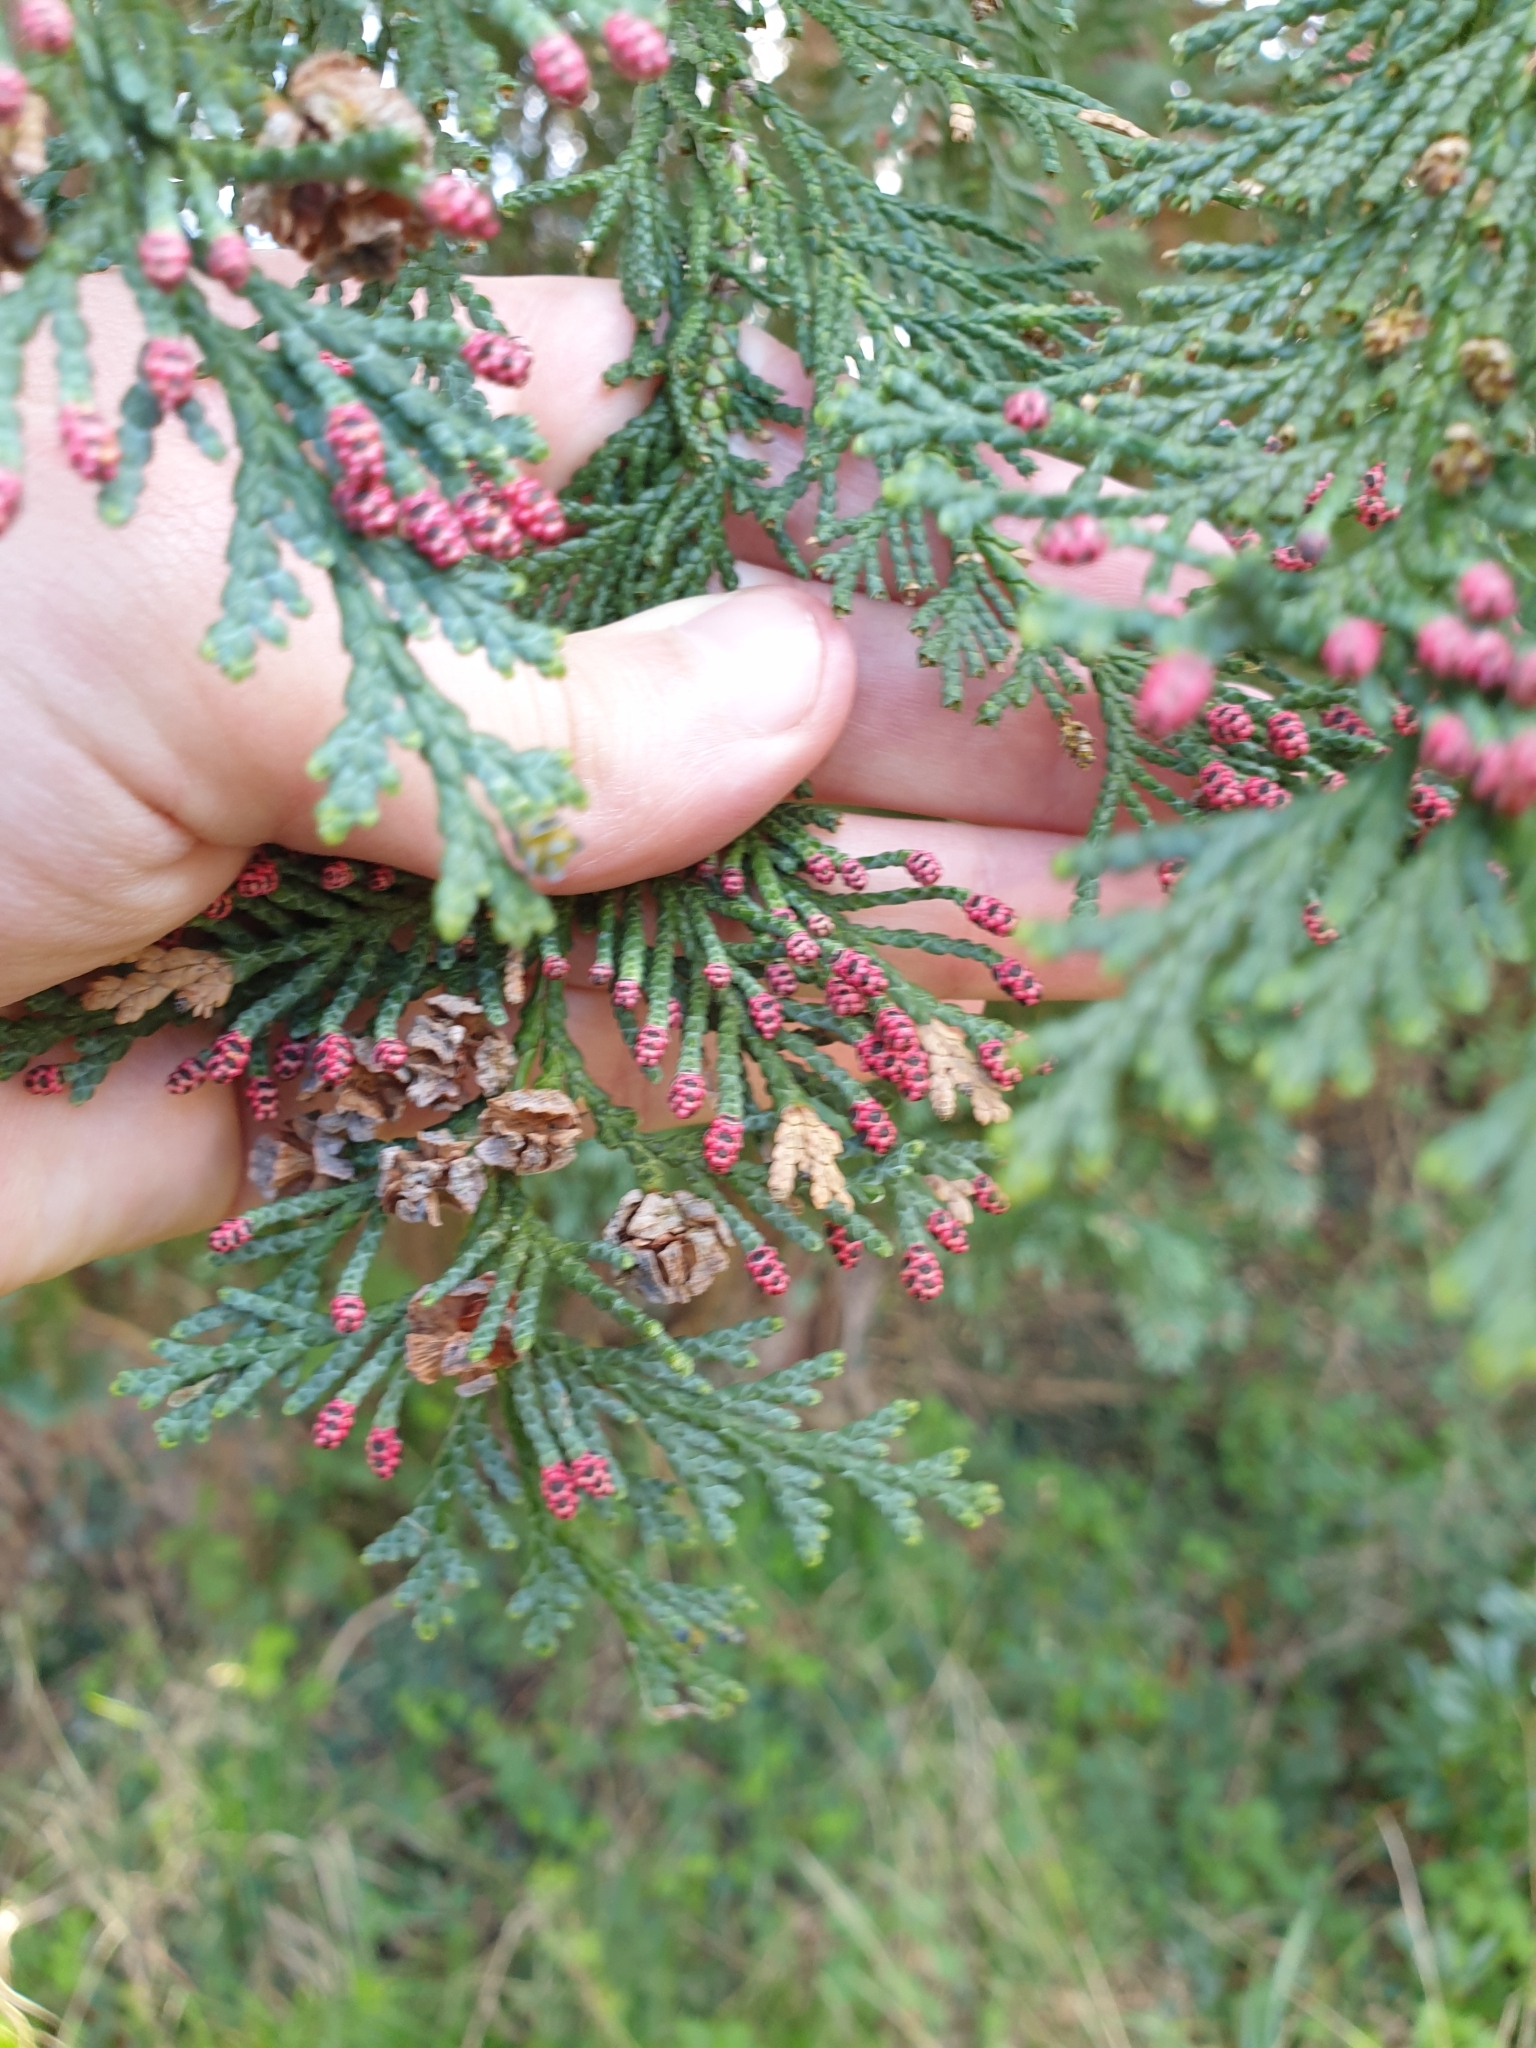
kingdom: Plantae
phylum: Tracheophyta
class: Pinopsida
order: Pinales
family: Cupressaceae
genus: Chamaecyparis
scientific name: Chamaecyparis lawsoniana
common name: Lawson's cypress
